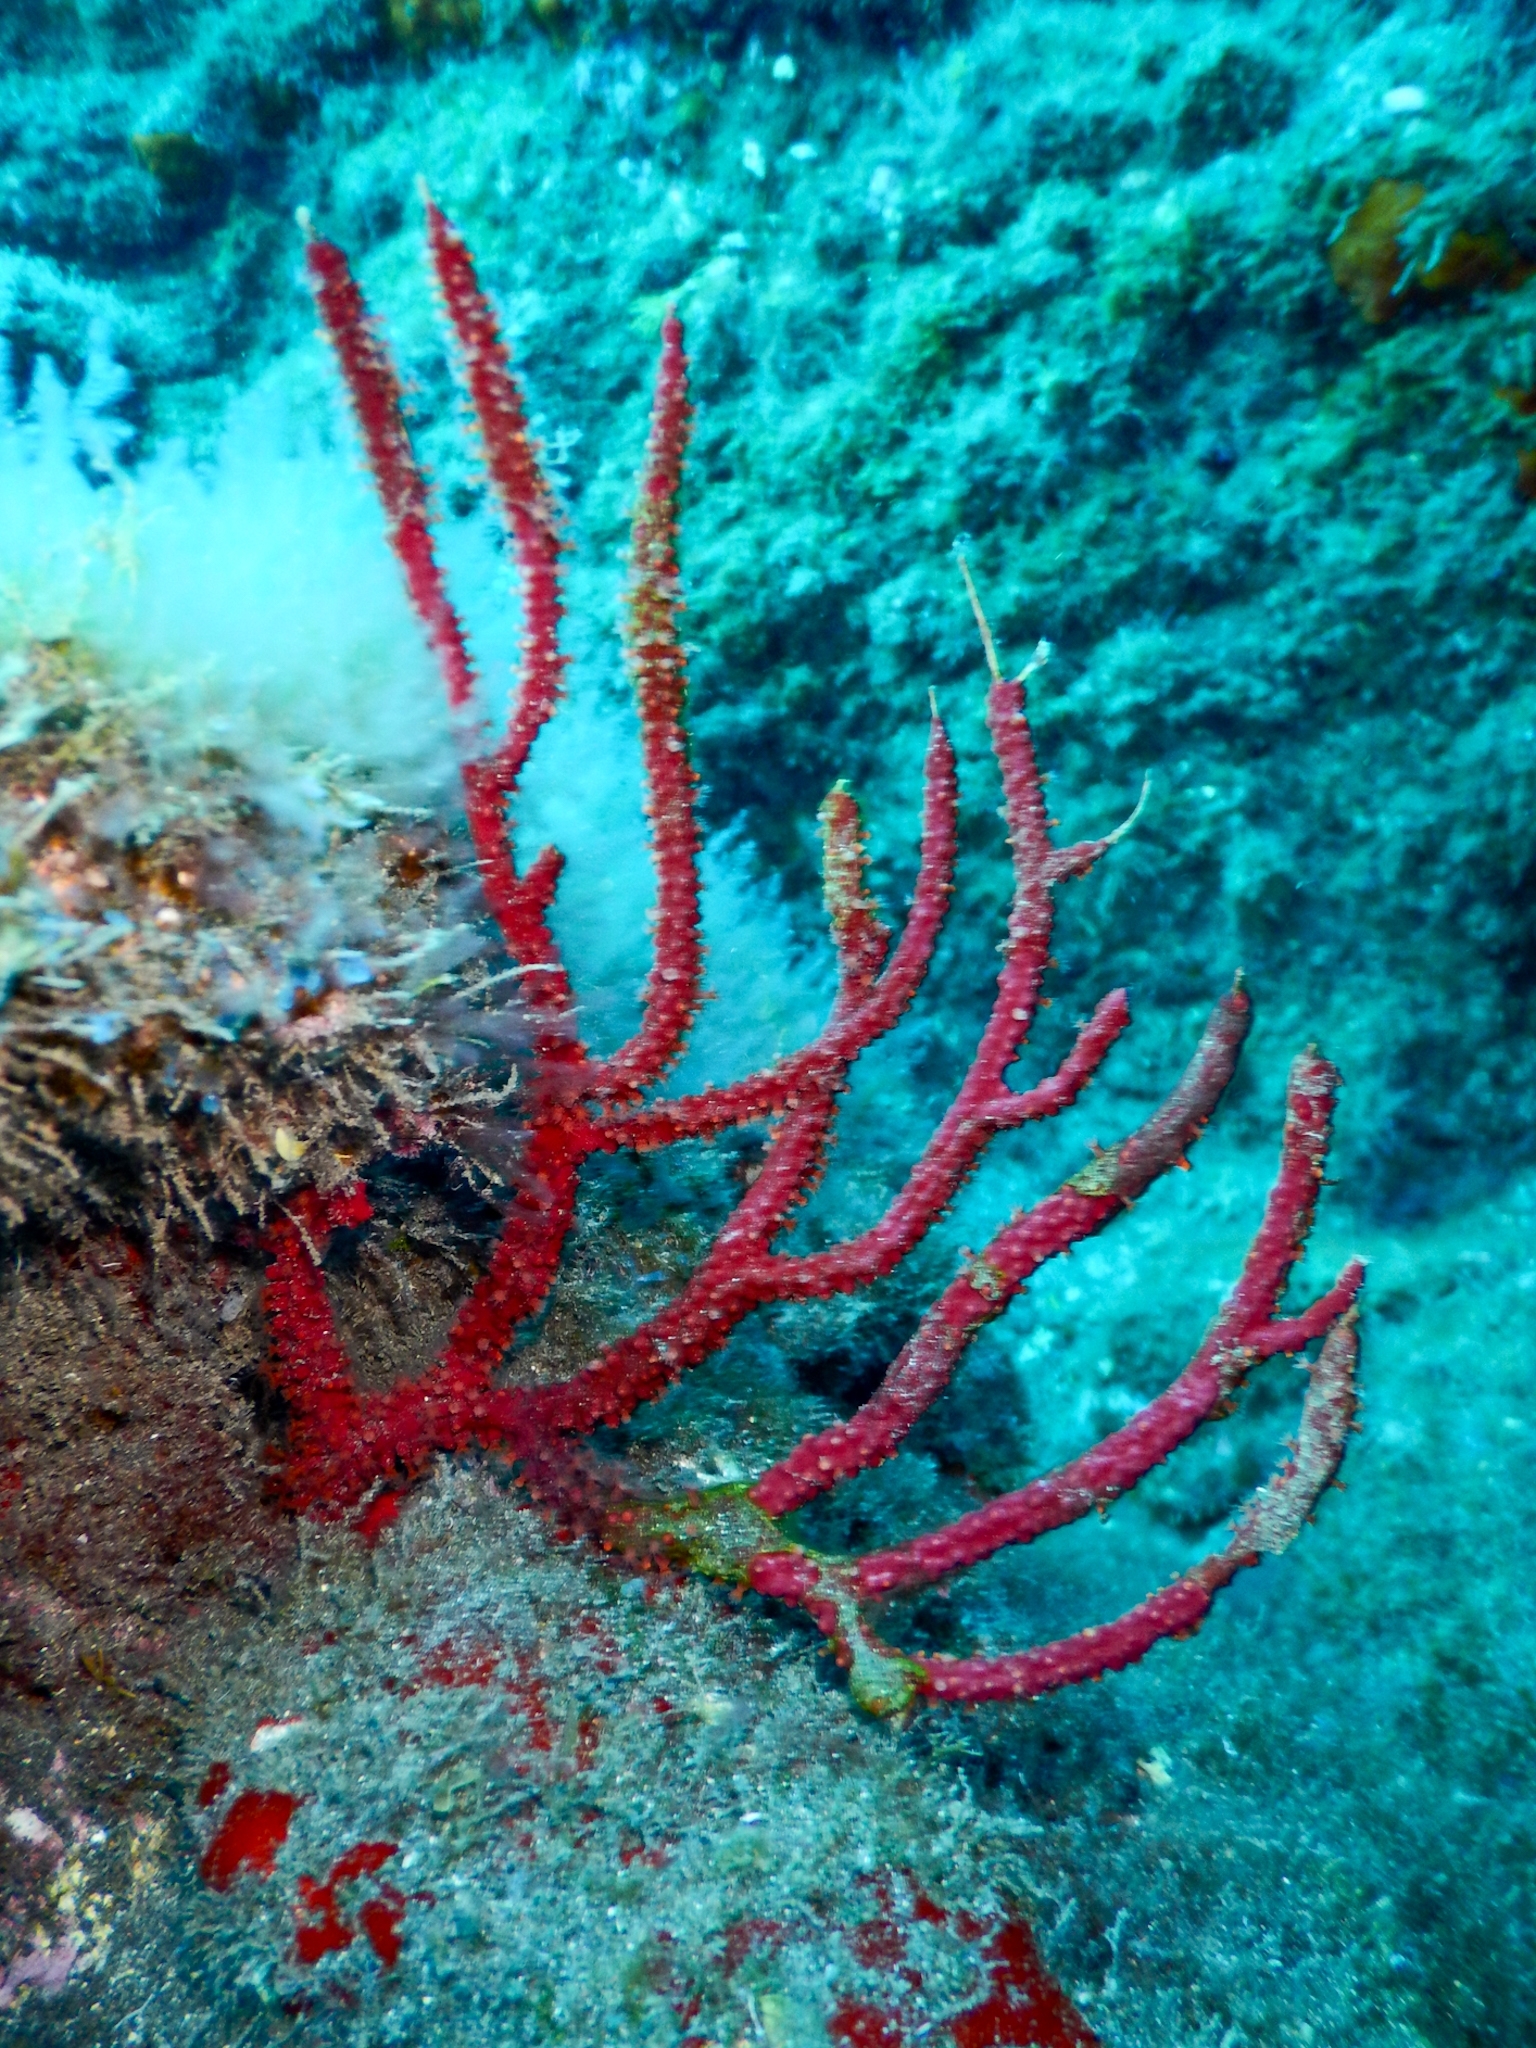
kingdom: Animalia
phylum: Cnidaria
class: Anthozoa
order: Malacalcyonacea
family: Gorgoniidae
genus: Leptogorgia
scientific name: Leptogorgia ruberrima
